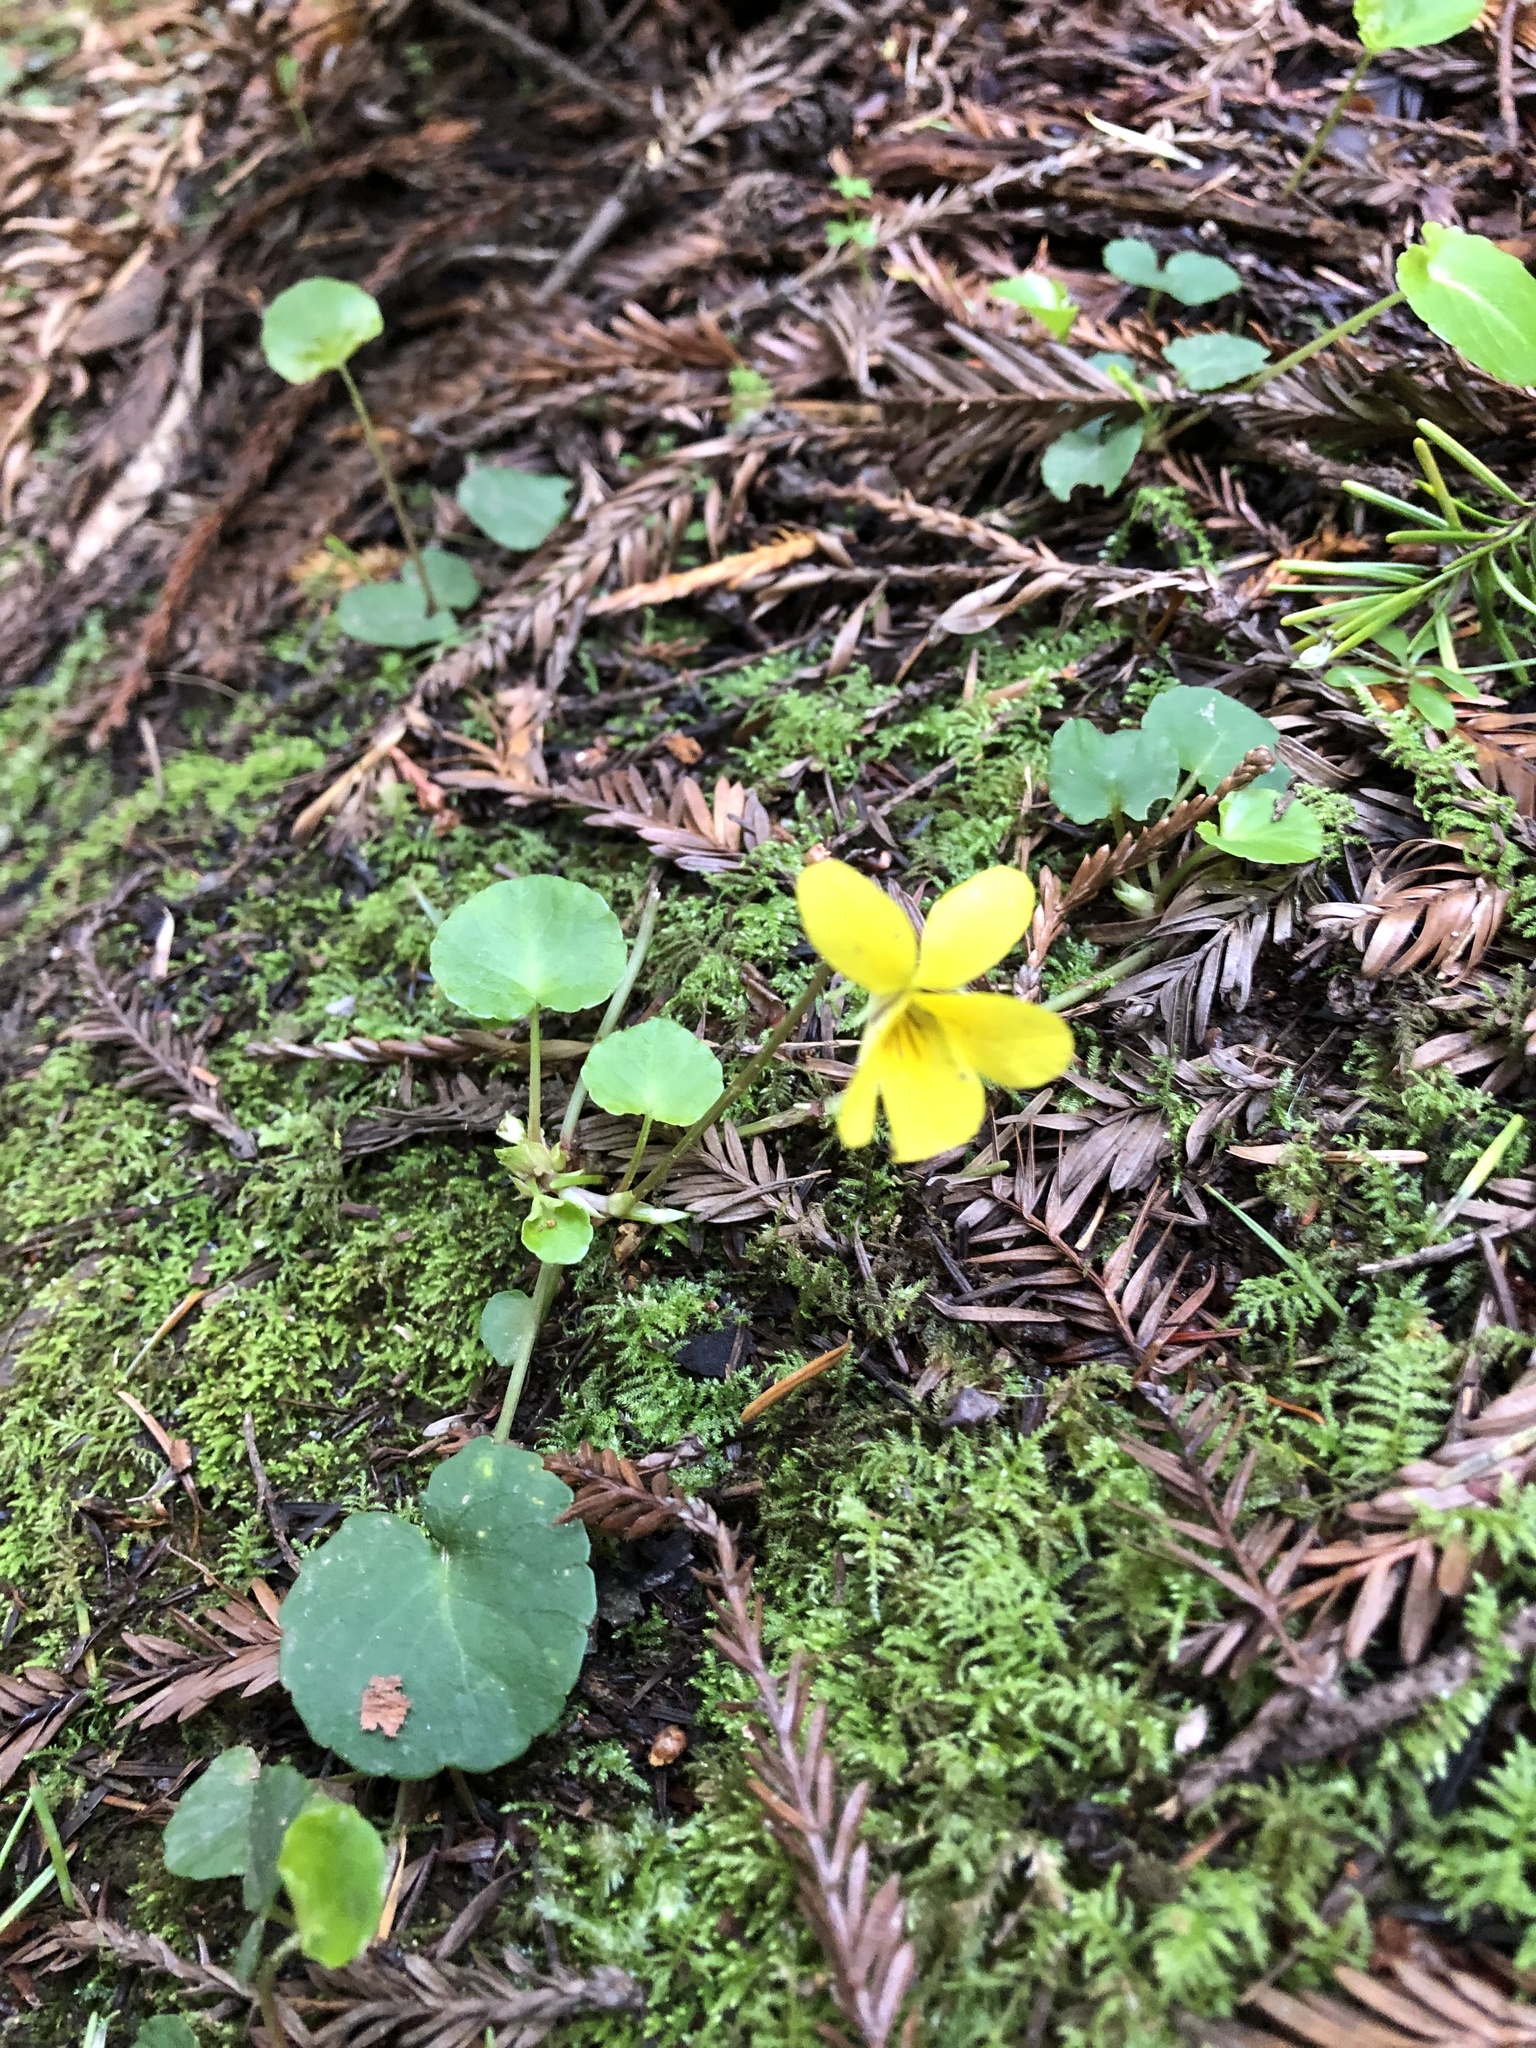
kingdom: Plantae
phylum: Tracheophyta
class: Magnoliopsida
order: Malpighiales
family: Violaceae
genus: Viola
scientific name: Viola sempervirens
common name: Evergreen violet
